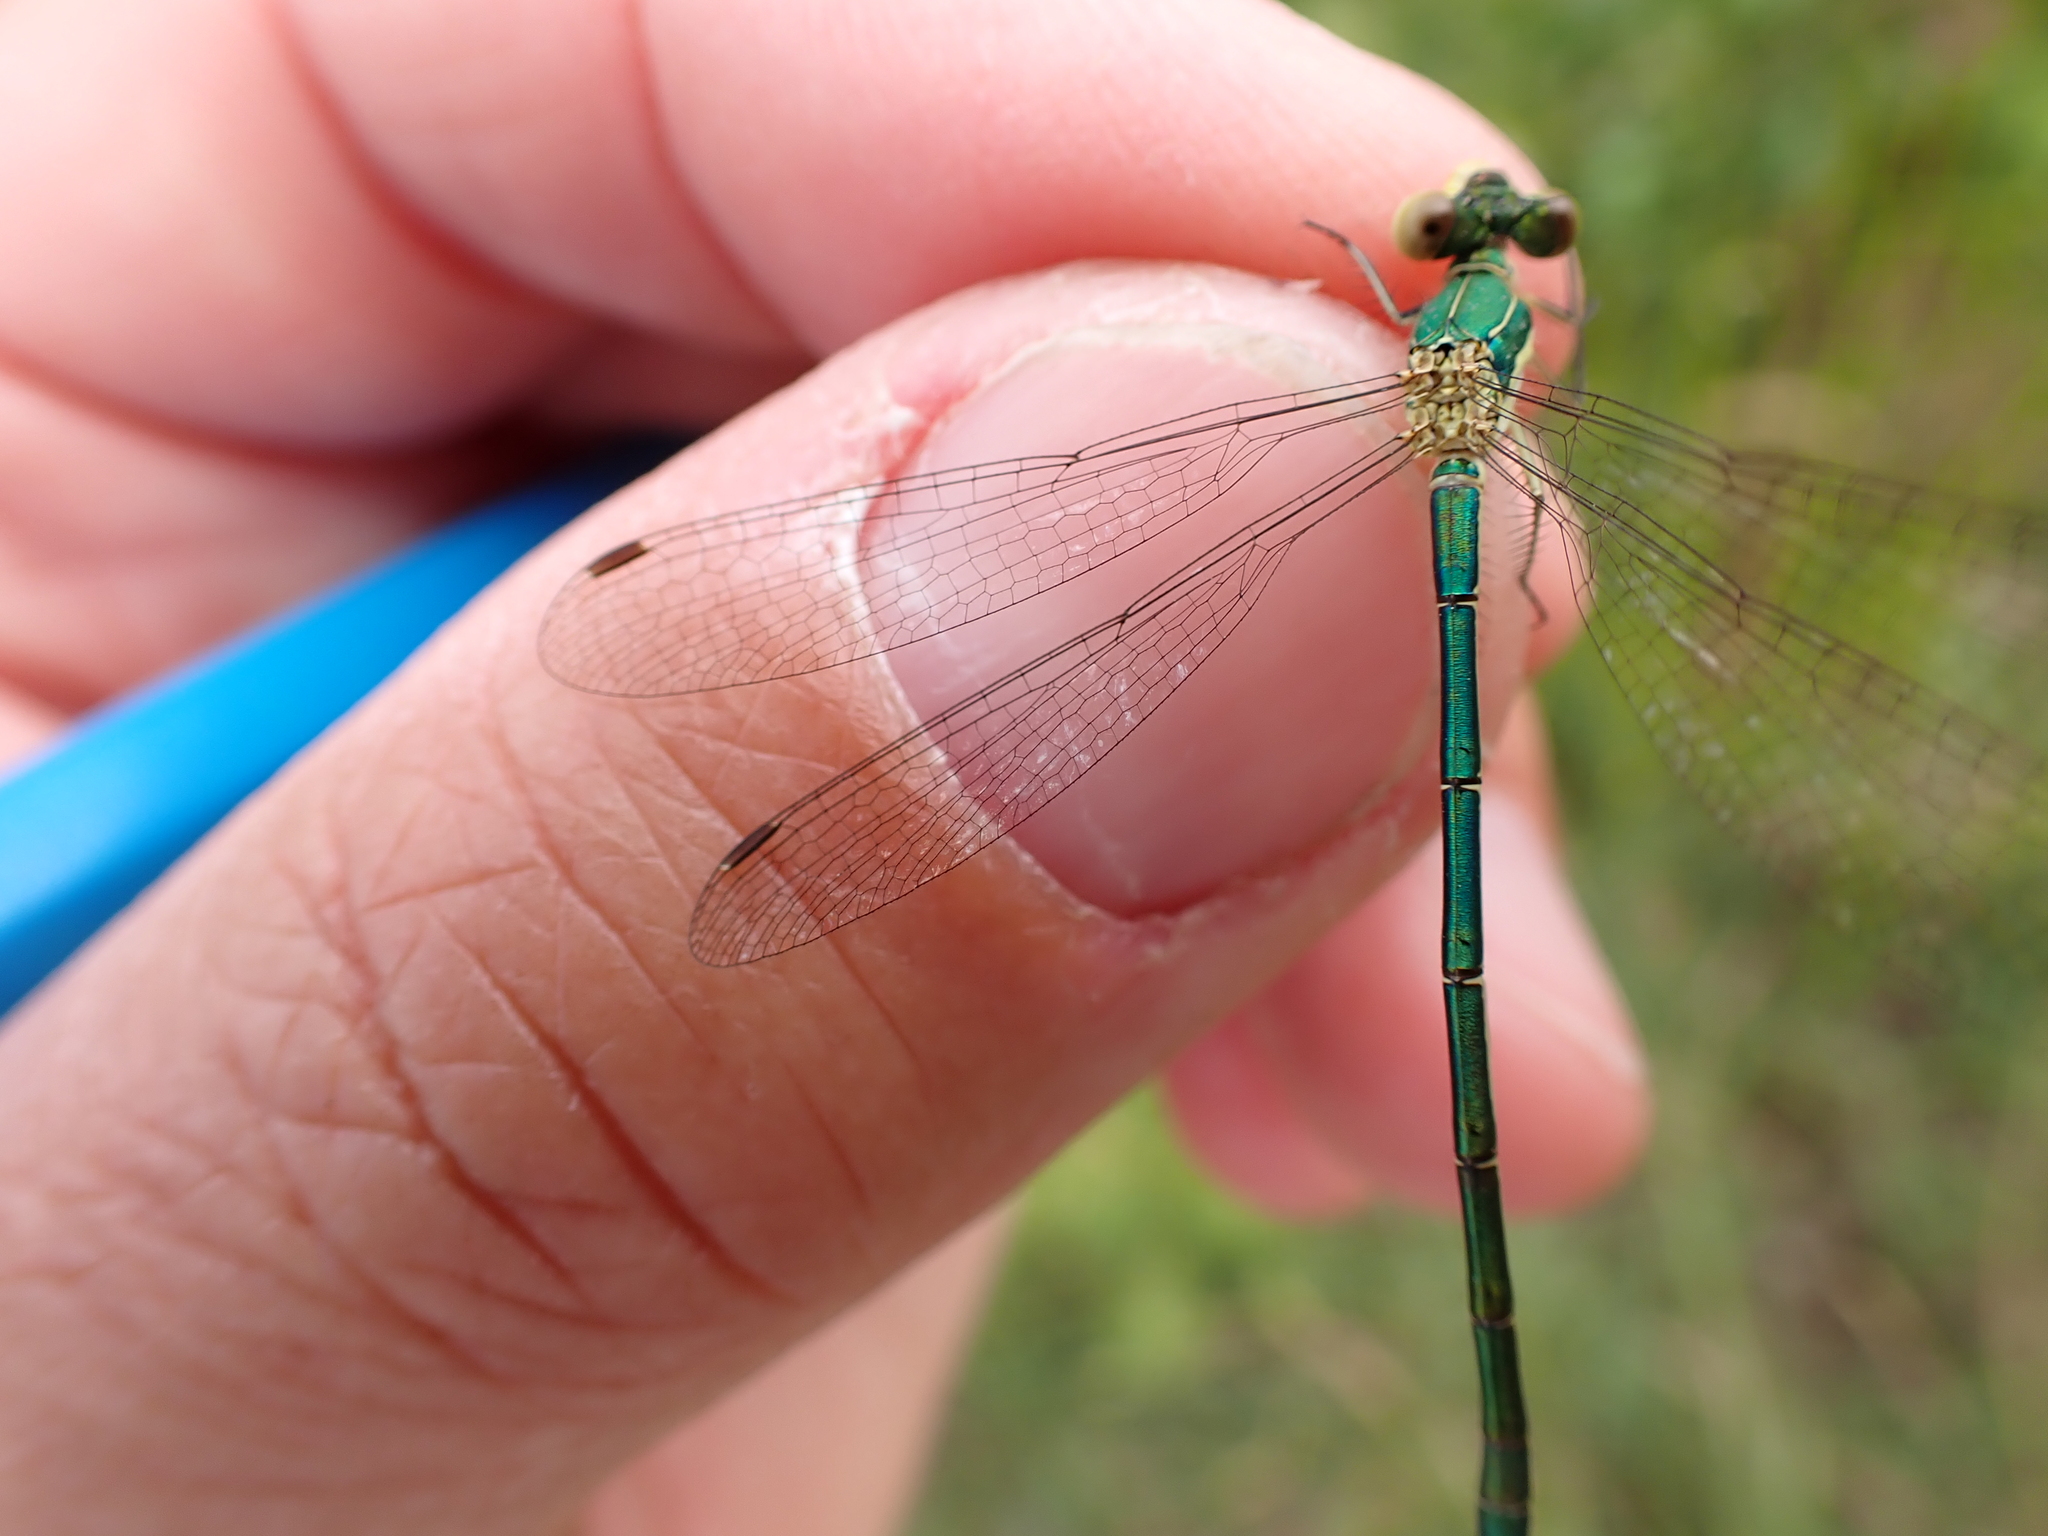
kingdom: Animalia
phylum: Arthropoda
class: Insecta
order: Odonata
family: Lestidae
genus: Lestes
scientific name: Lestes virens
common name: Small emerald spreadwing
